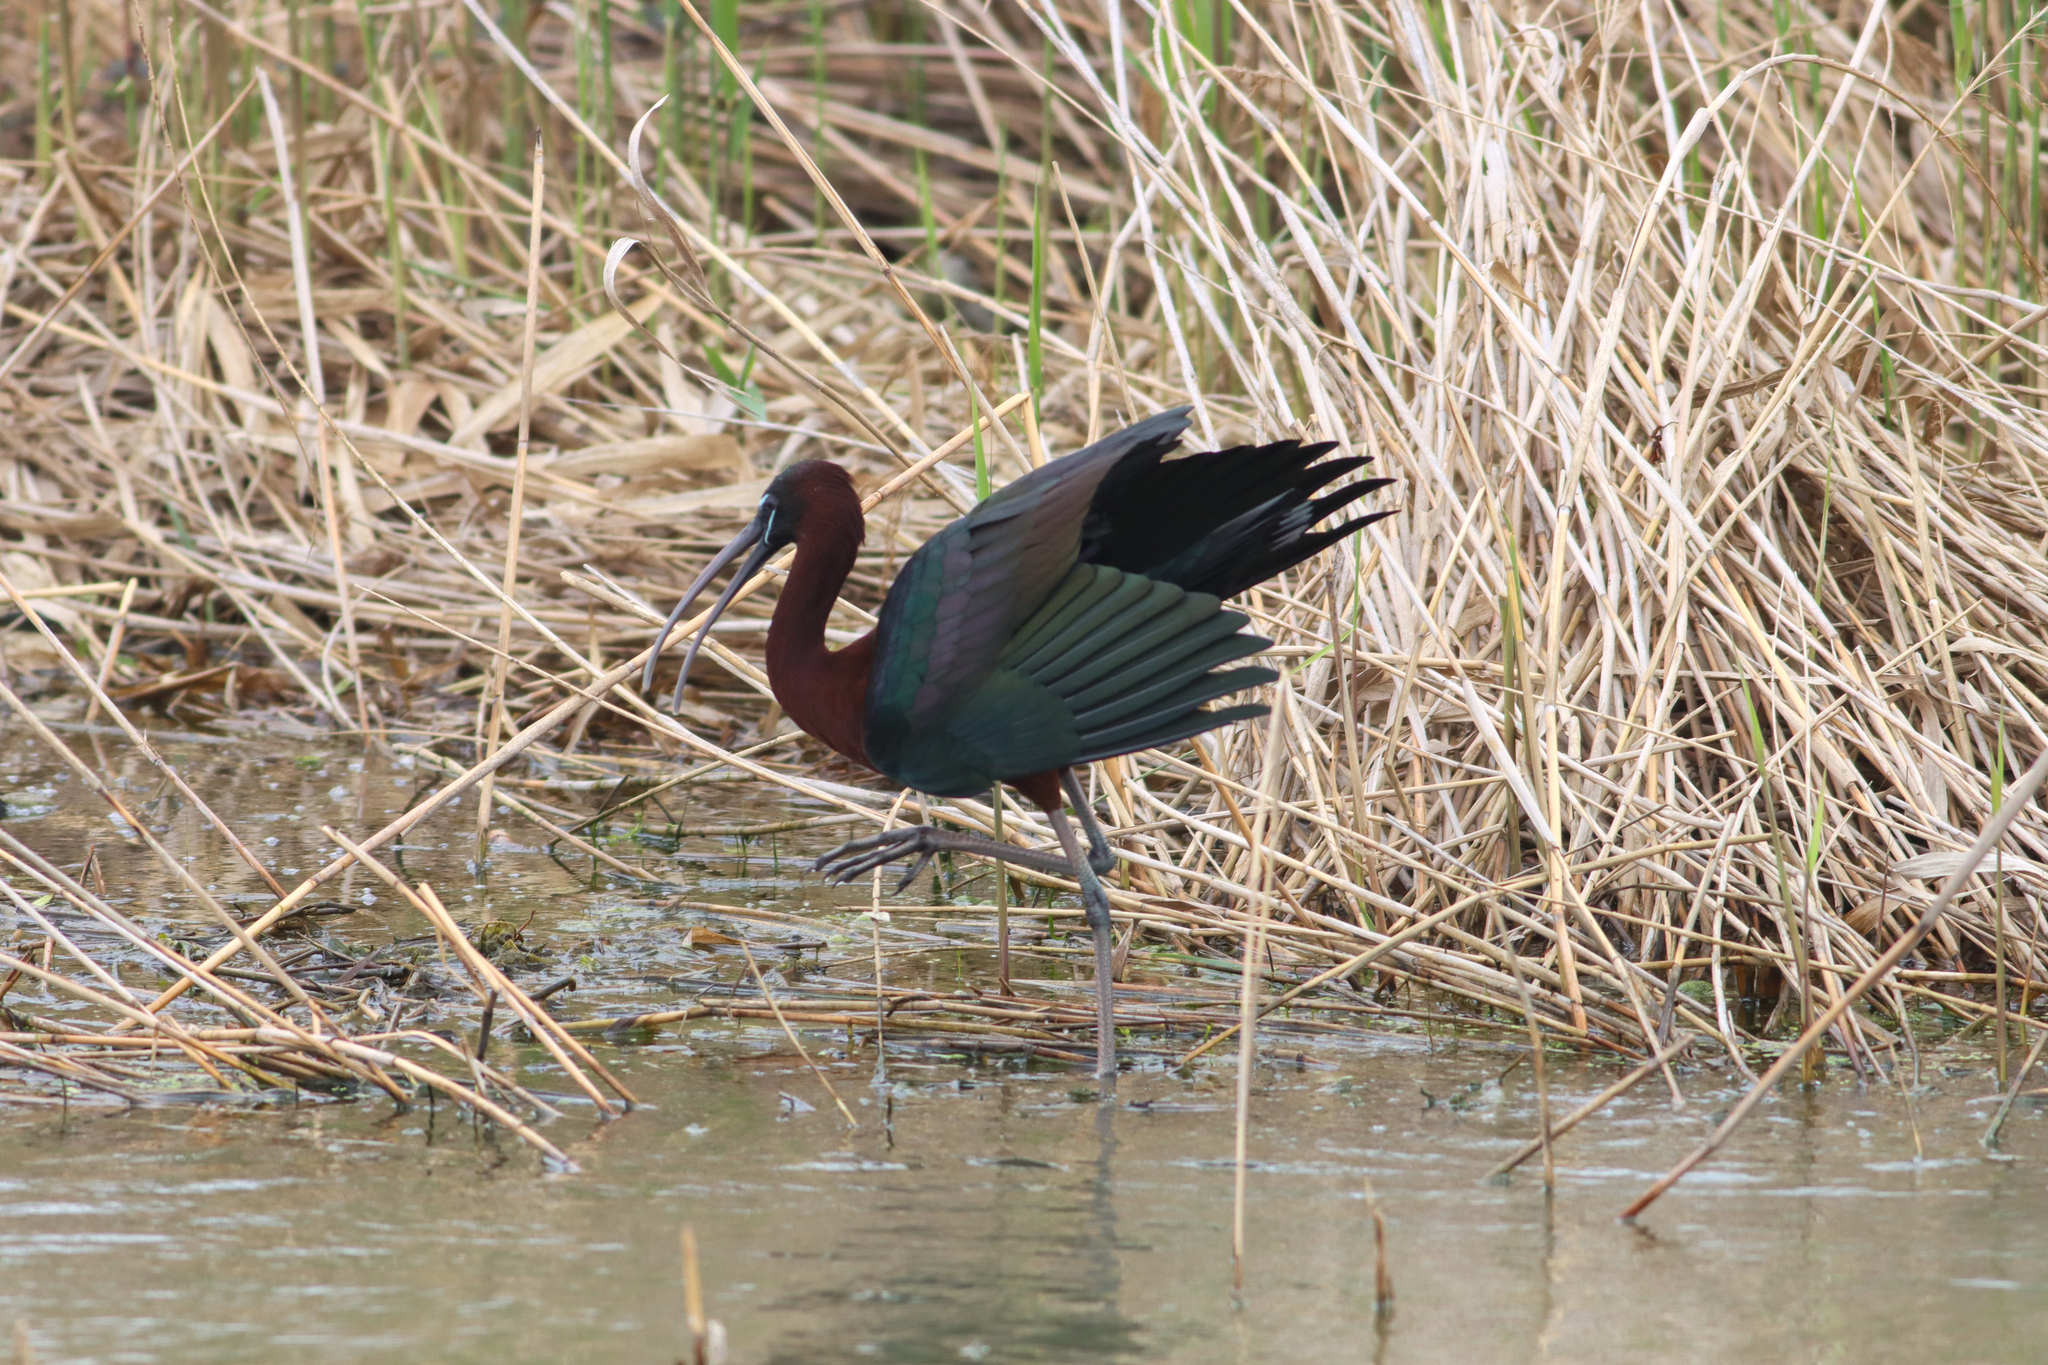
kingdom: Animalia
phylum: Chordata
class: Aves
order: Pelecaniformes
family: Threskiornithidae
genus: Plegadis
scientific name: Plegadis falcinellus
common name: Glossy ibis
